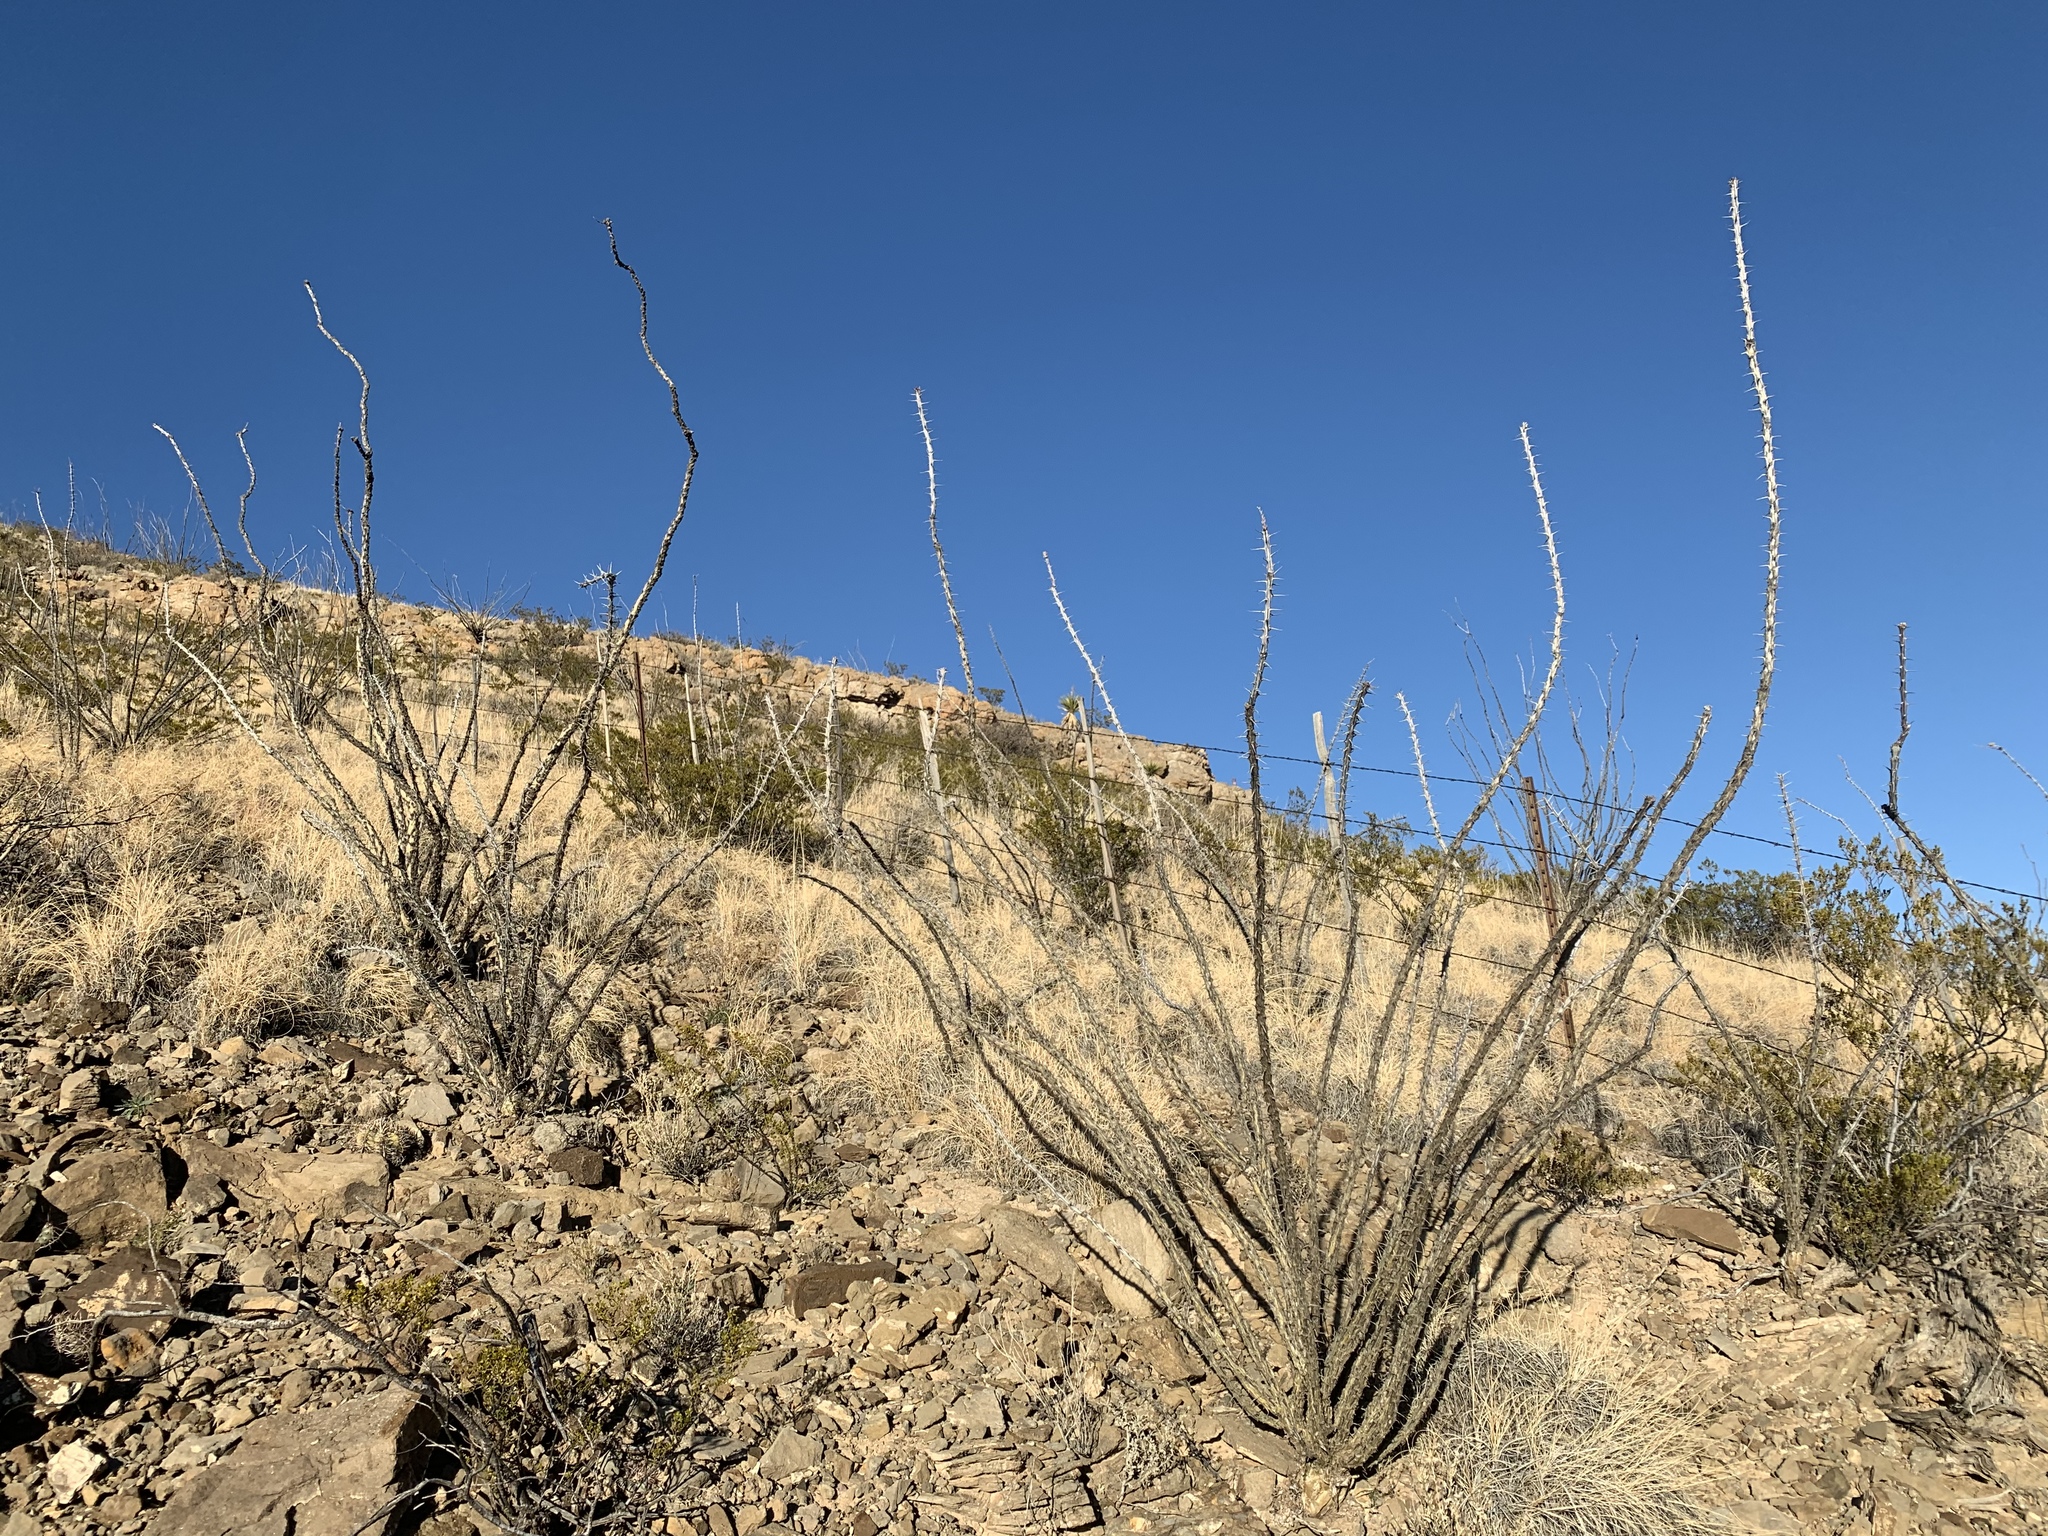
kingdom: Plantae
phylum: Tracheophyta
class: Magnoliopsida
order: Ericales
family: Fouquieriaceae
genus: Fouquieria
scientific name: Fouquieria splendens
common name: Vine-cactus
